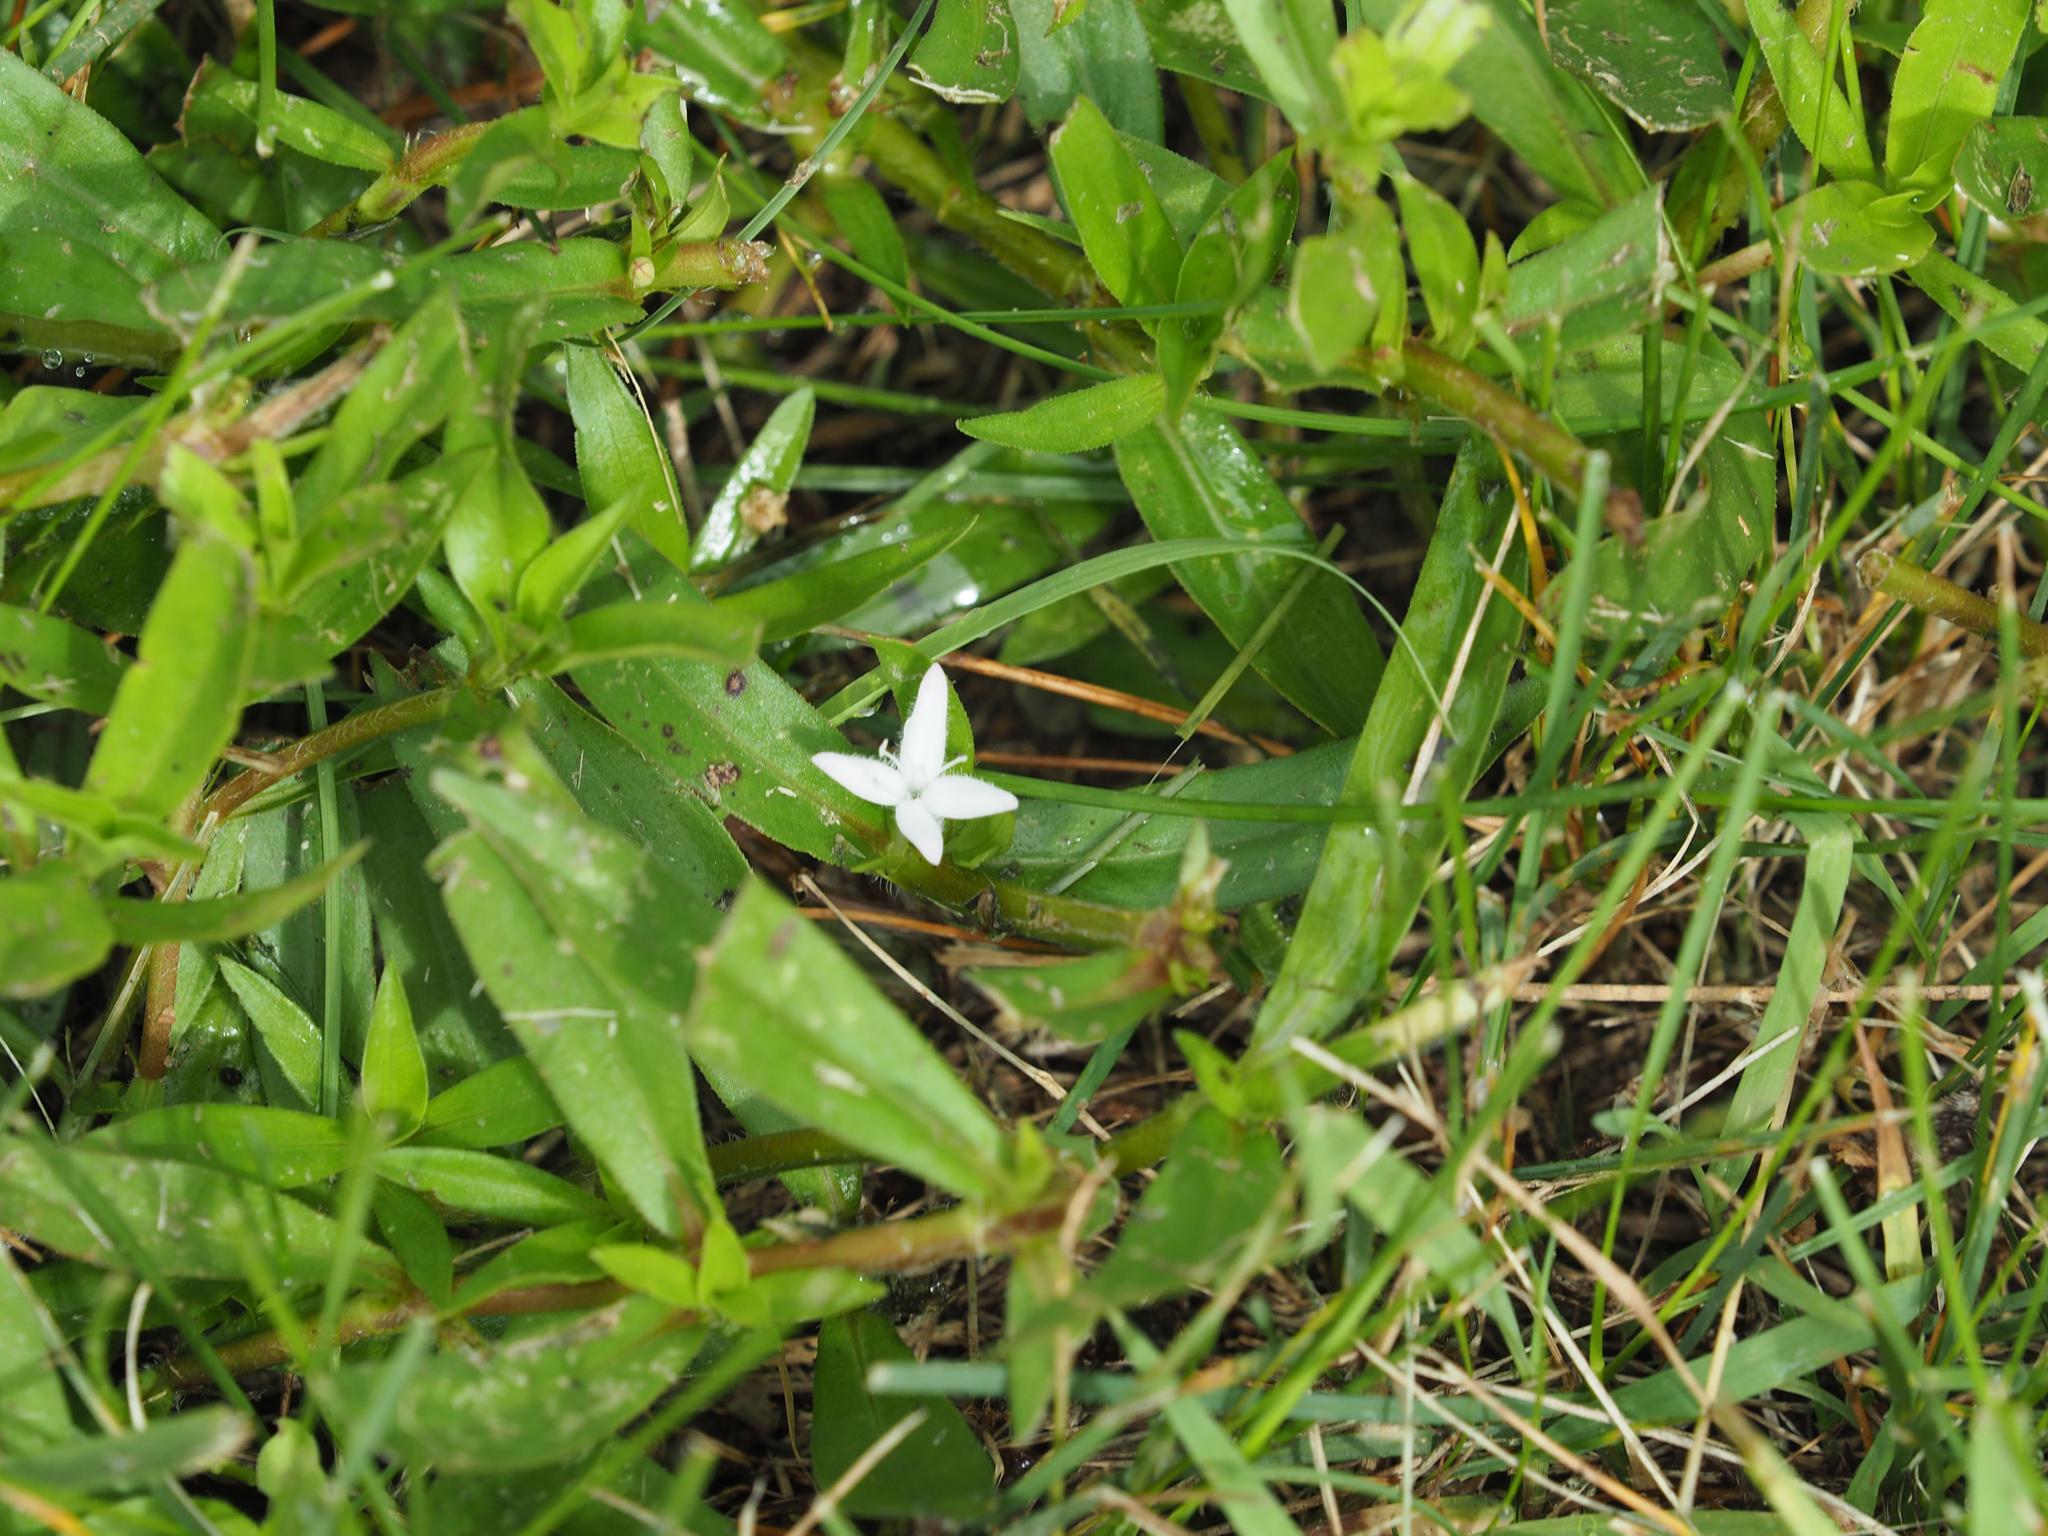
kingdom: Plantae
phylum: Tracheophyta
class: Magnoliopsida
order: Gentianales
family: Rubiaceae
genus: Diodia
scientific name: Diodia virginiana
